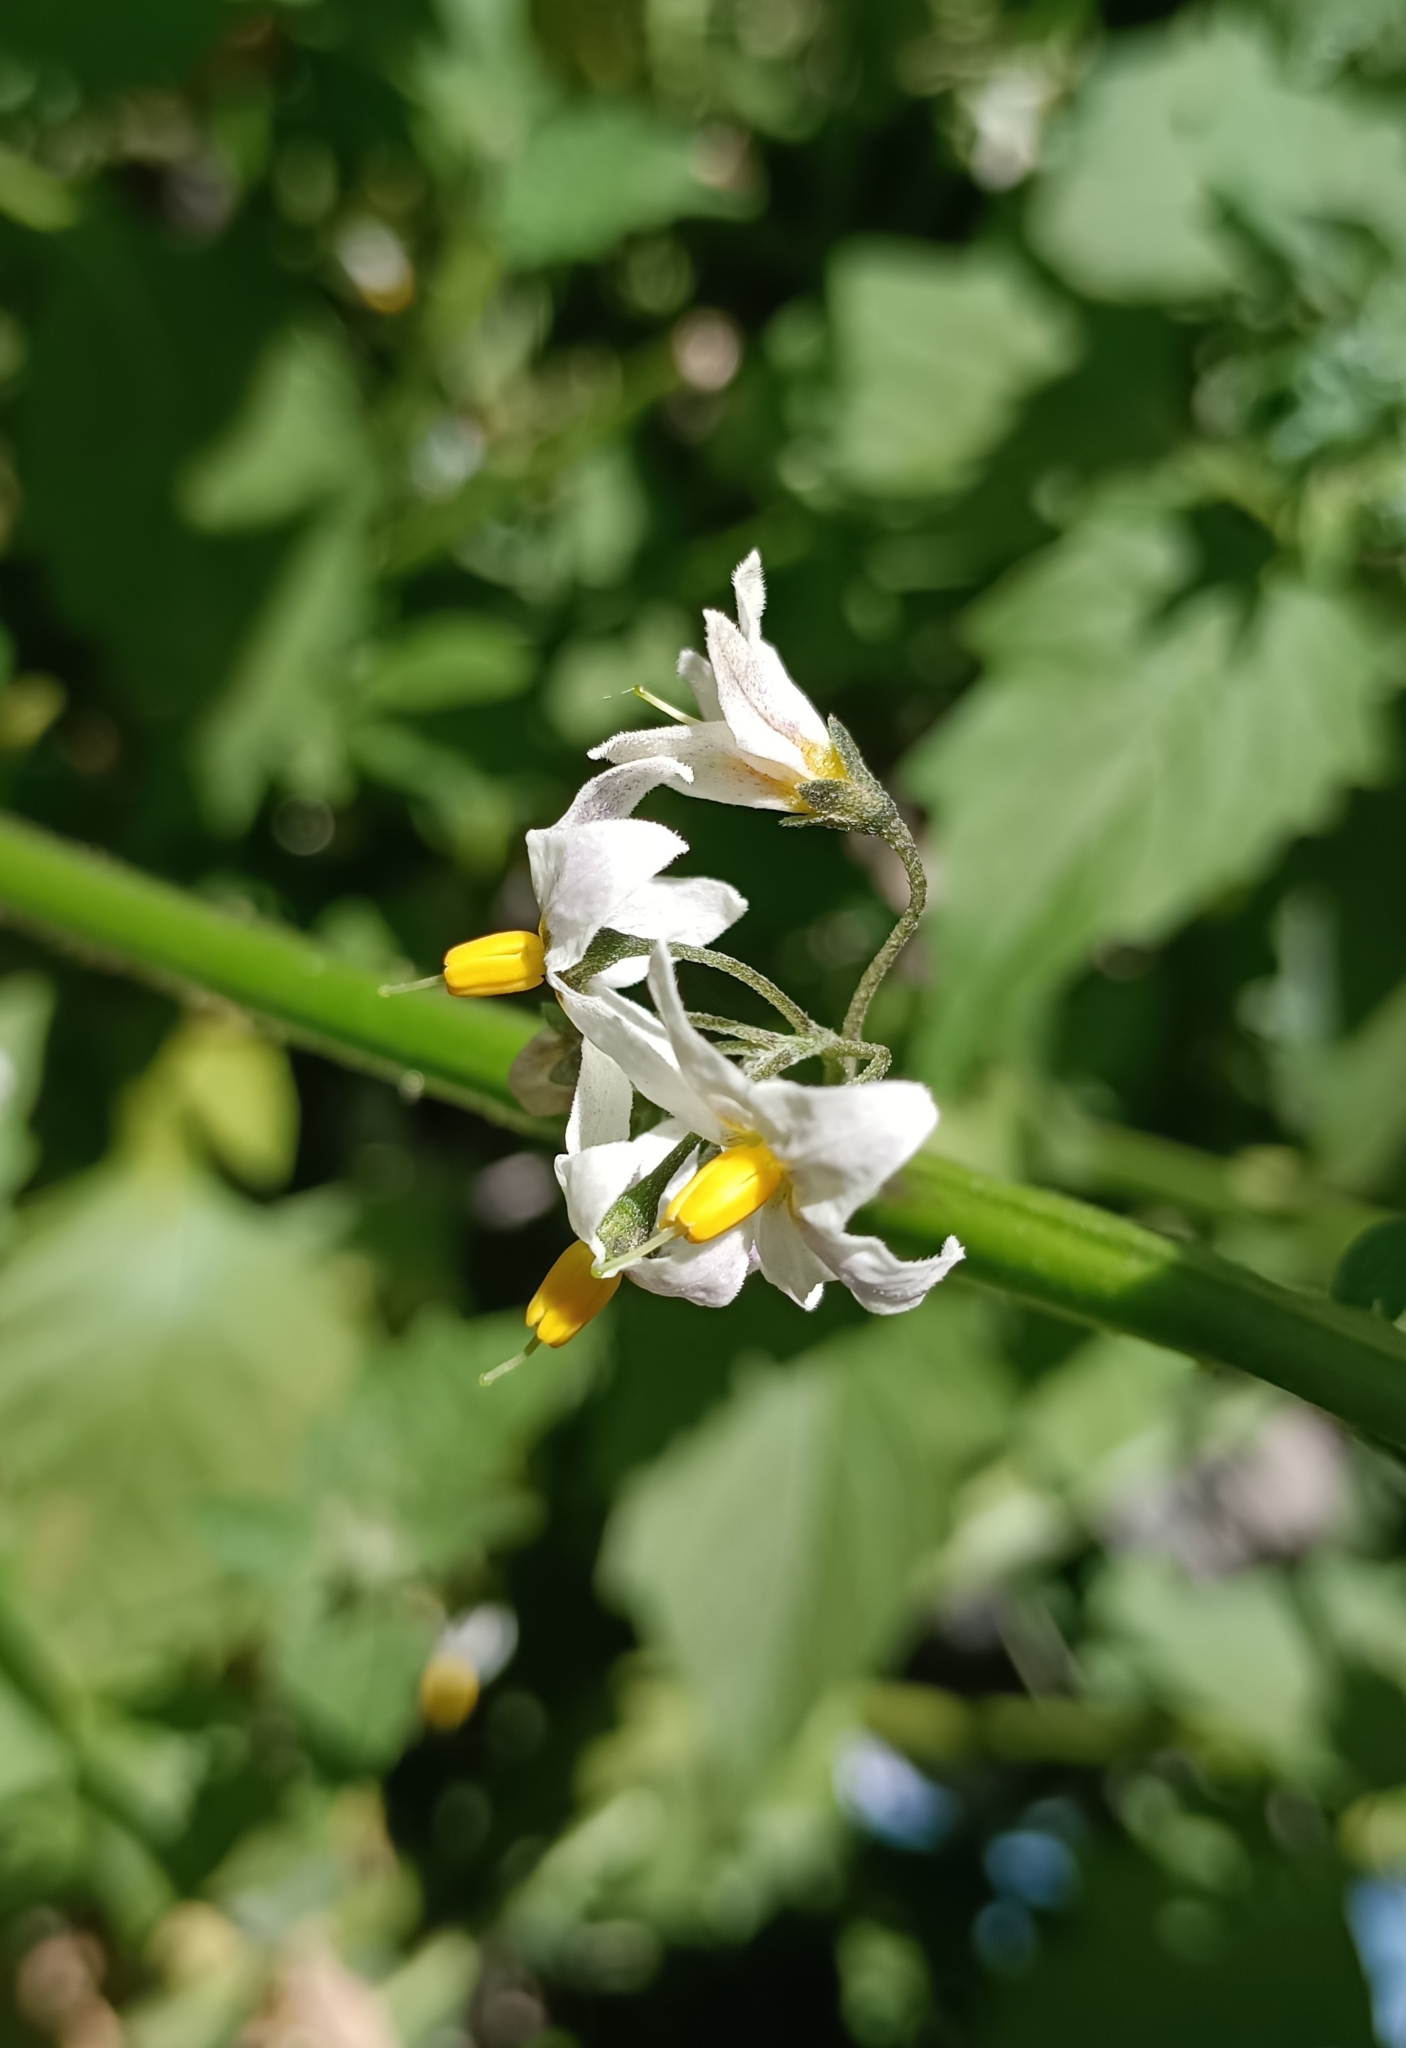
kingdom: Plantae
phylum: Tracheophyta
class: Magnoliopsida
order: Solanales
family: Solanaceae
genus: Solanum
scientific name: Solanum furcatum
